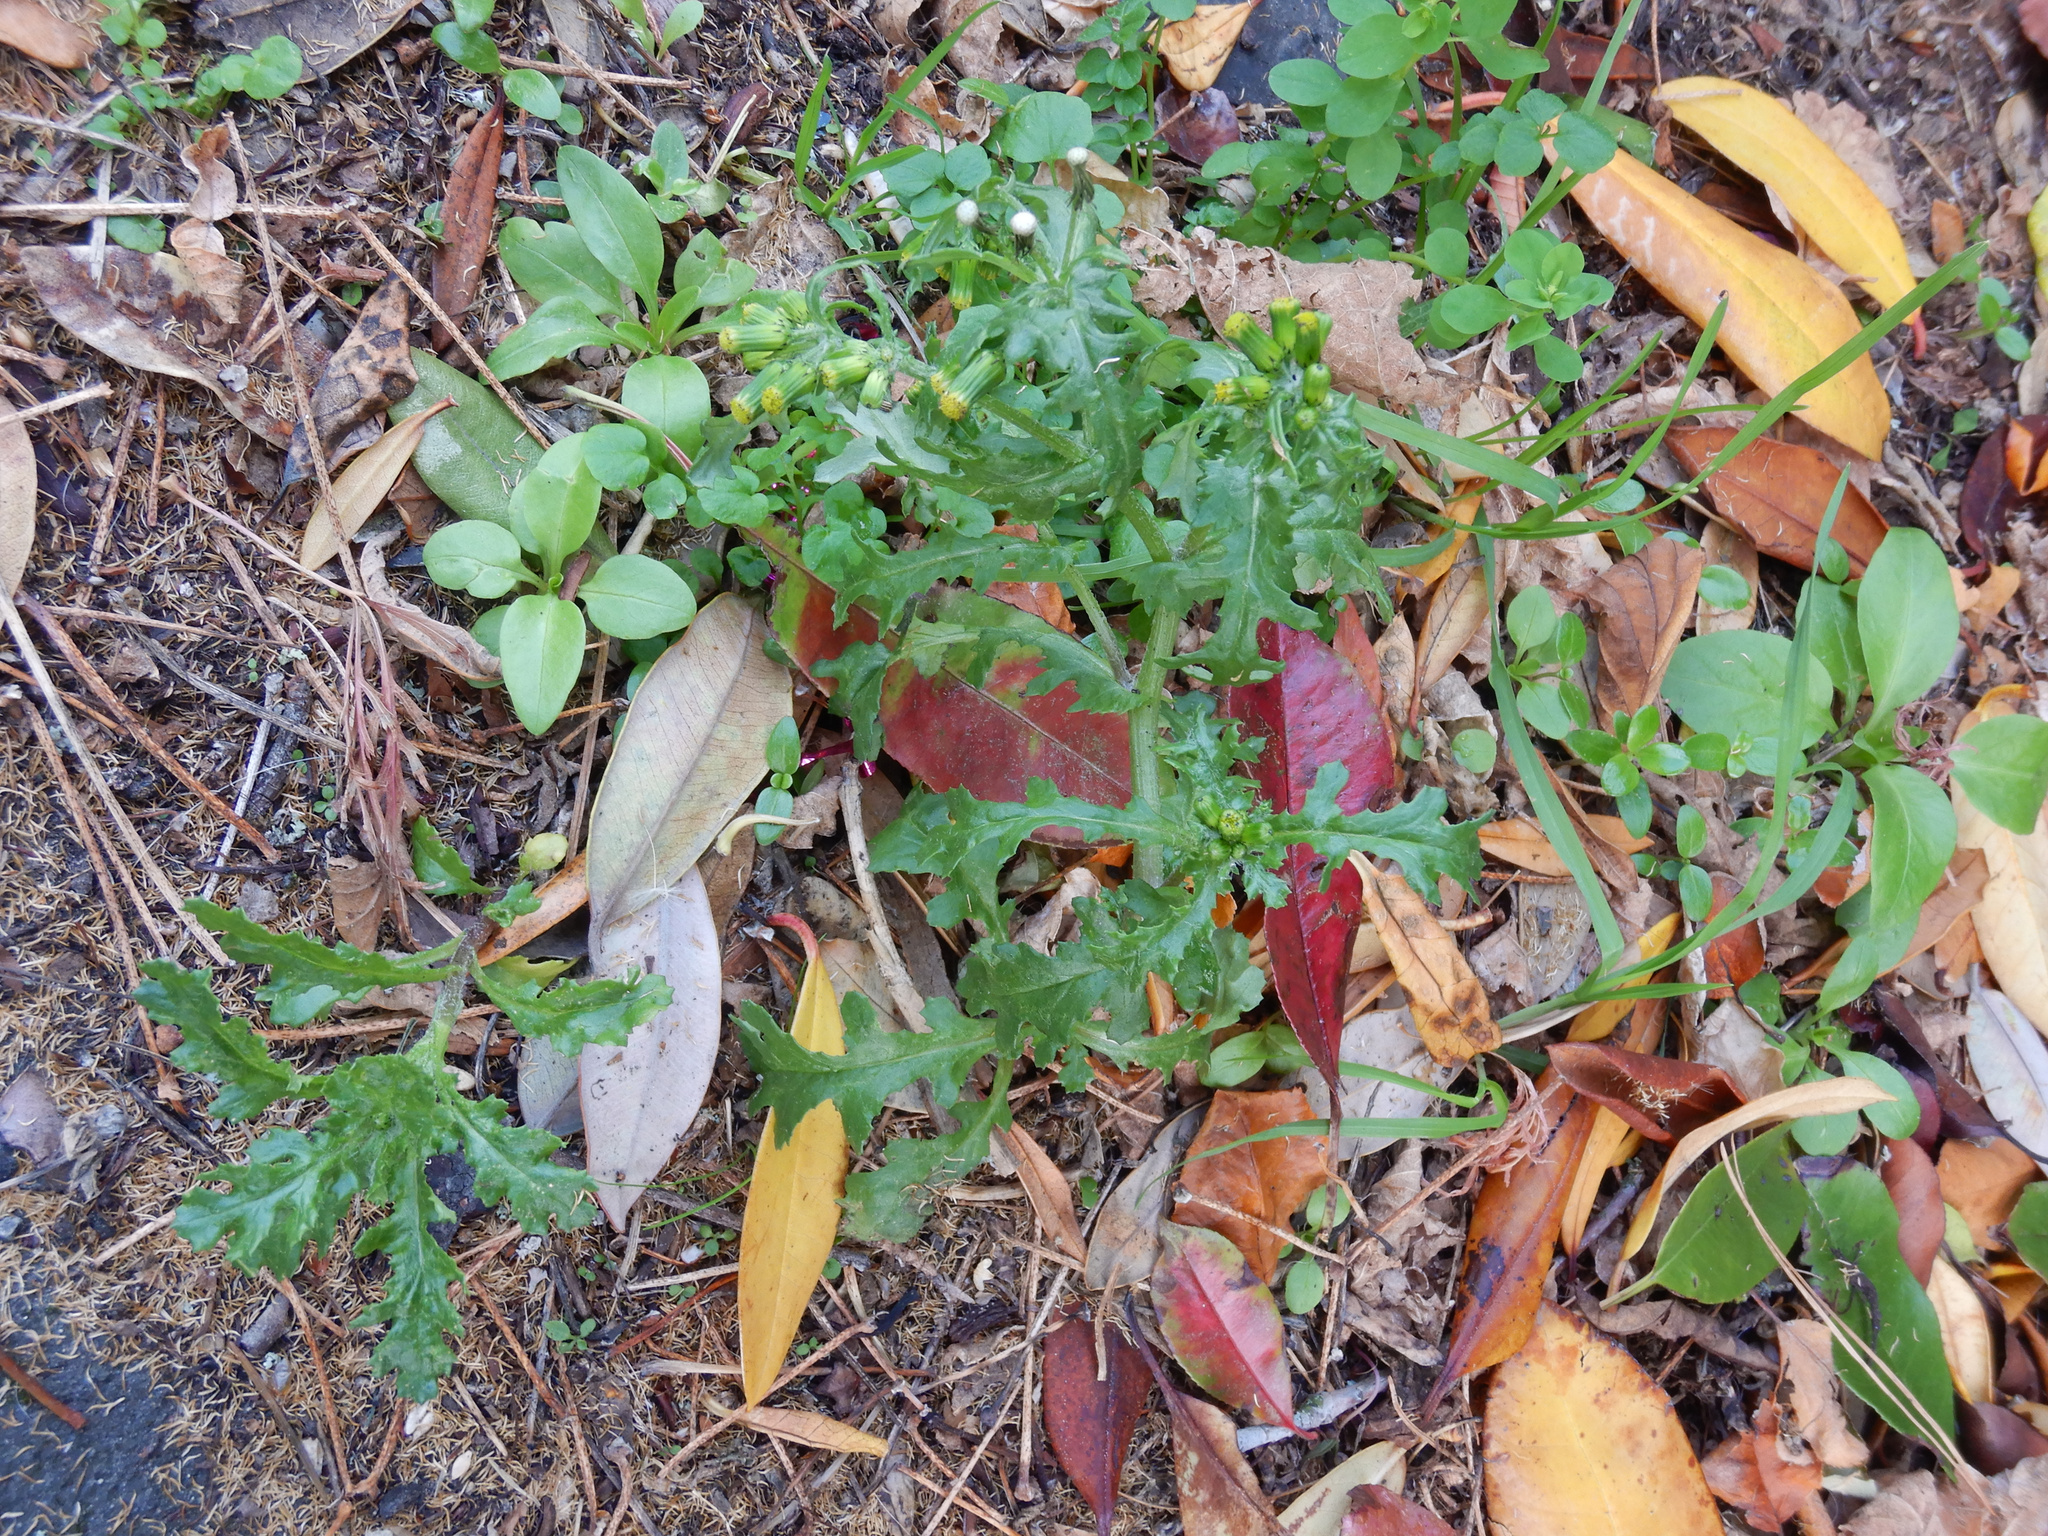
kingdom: Plantae
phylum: Tracheophyta
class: Magnoliopsida
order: Asterales
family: Asteraceae
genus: Senecio
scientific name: Senecio vulgaris
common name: Old-man-in-the-spring
